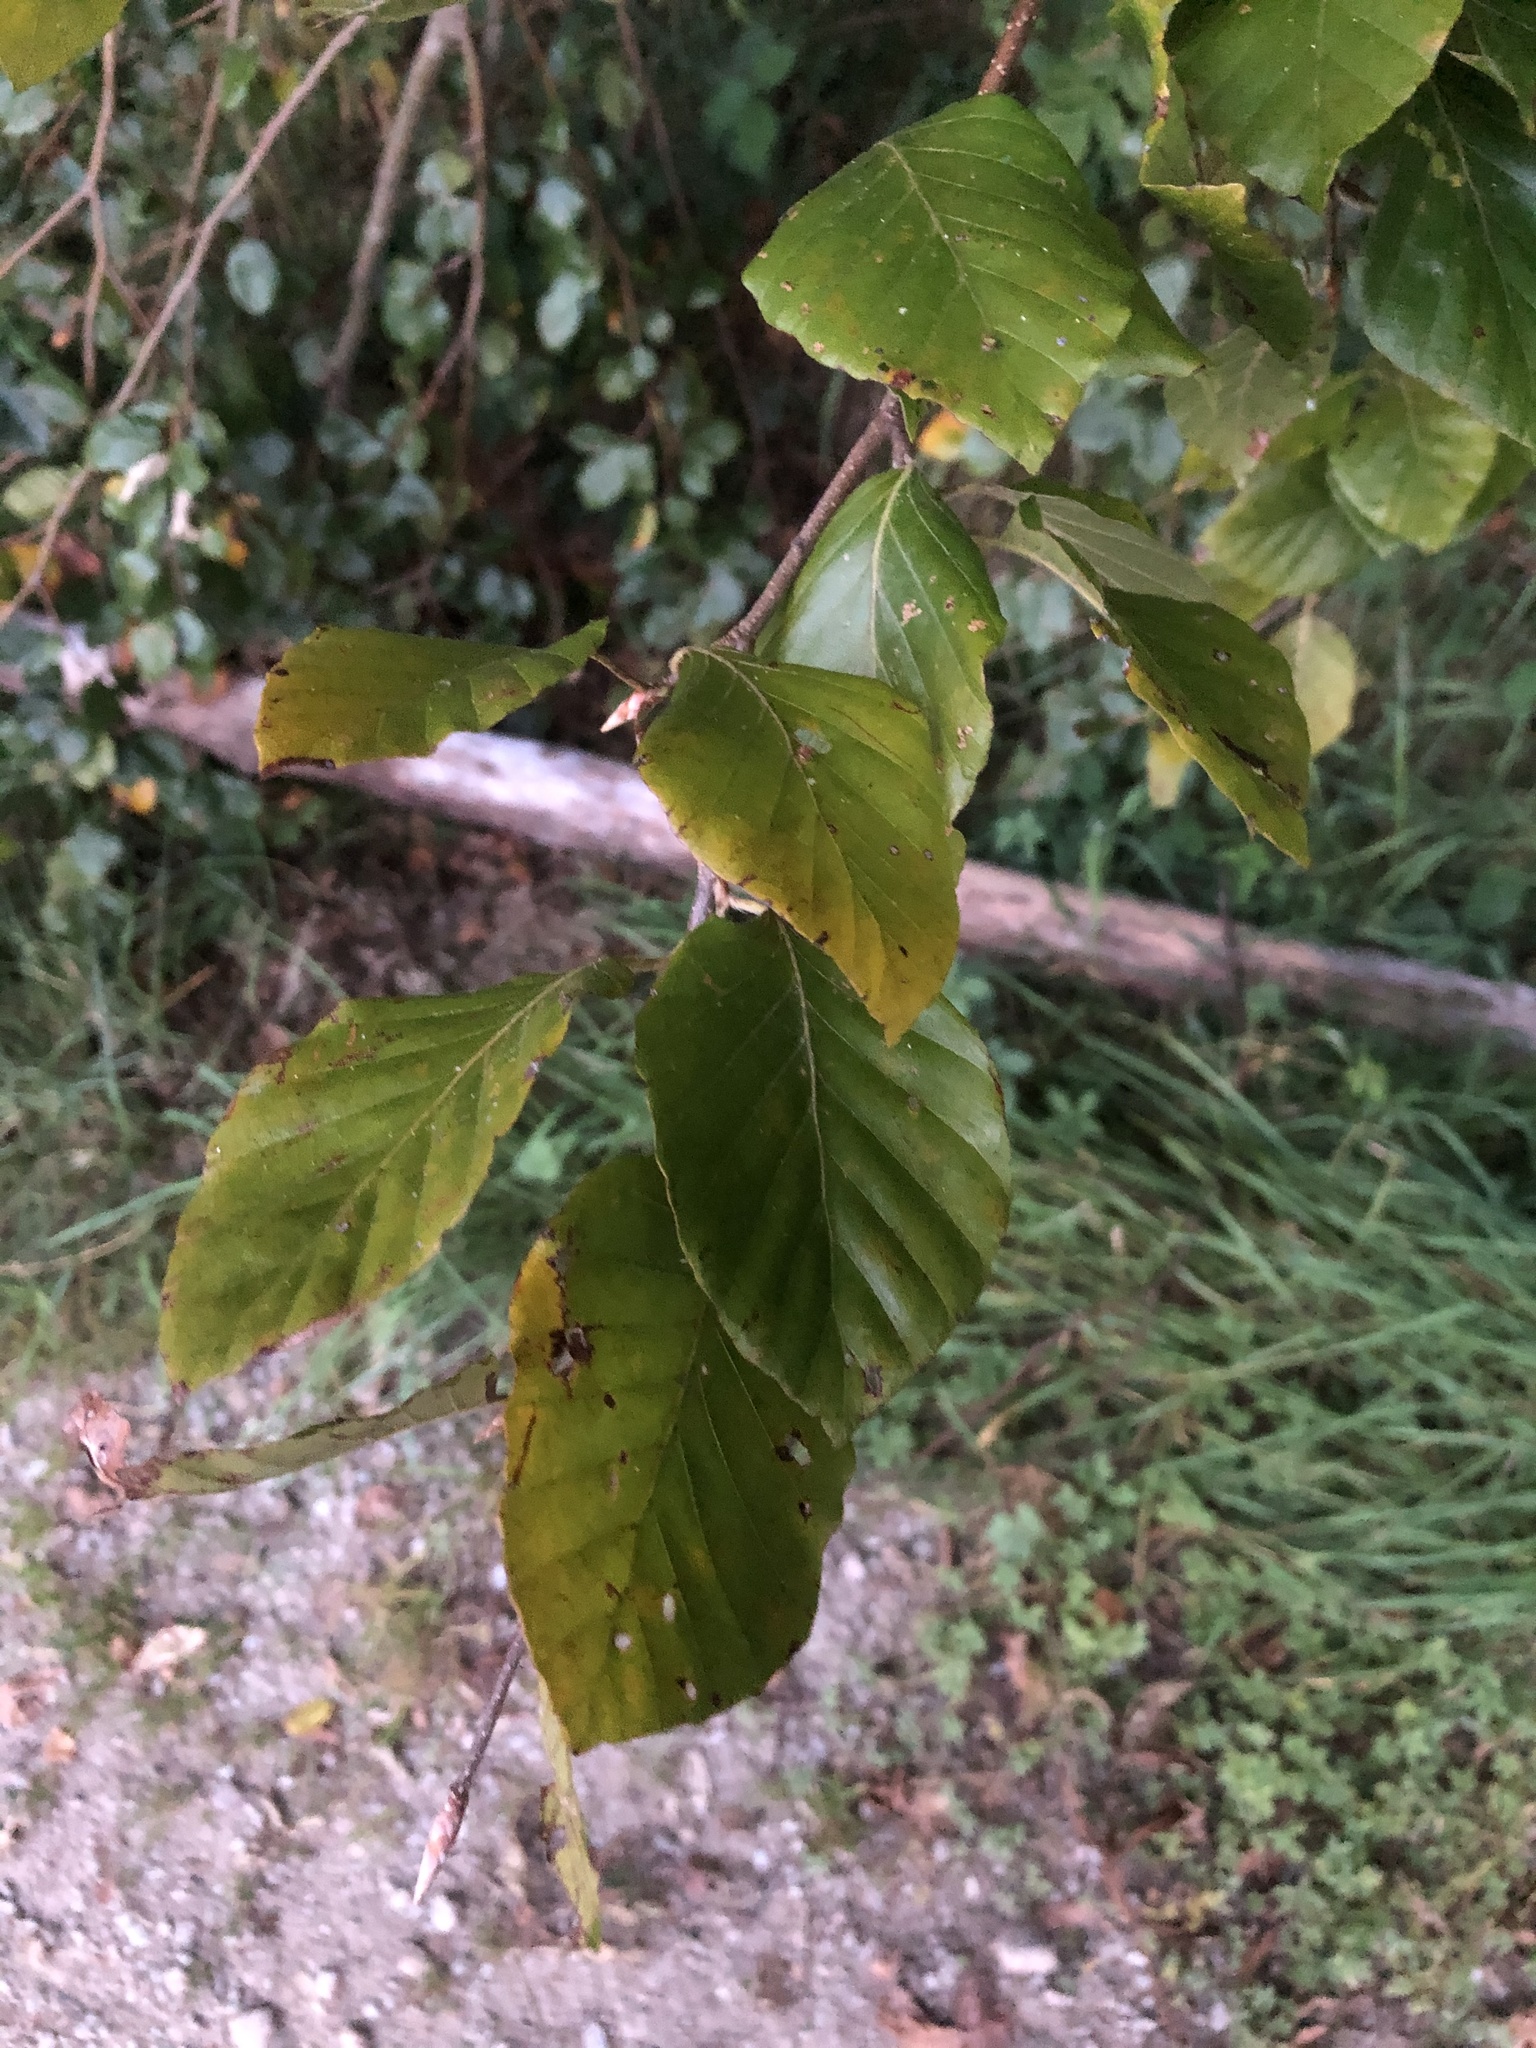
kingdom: Plantae
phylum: Tracheophyta
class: Magnoliopsida
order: Fagales
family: Fagaceae
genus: Fagus
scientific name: Fagus sylvatica
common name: Beech
